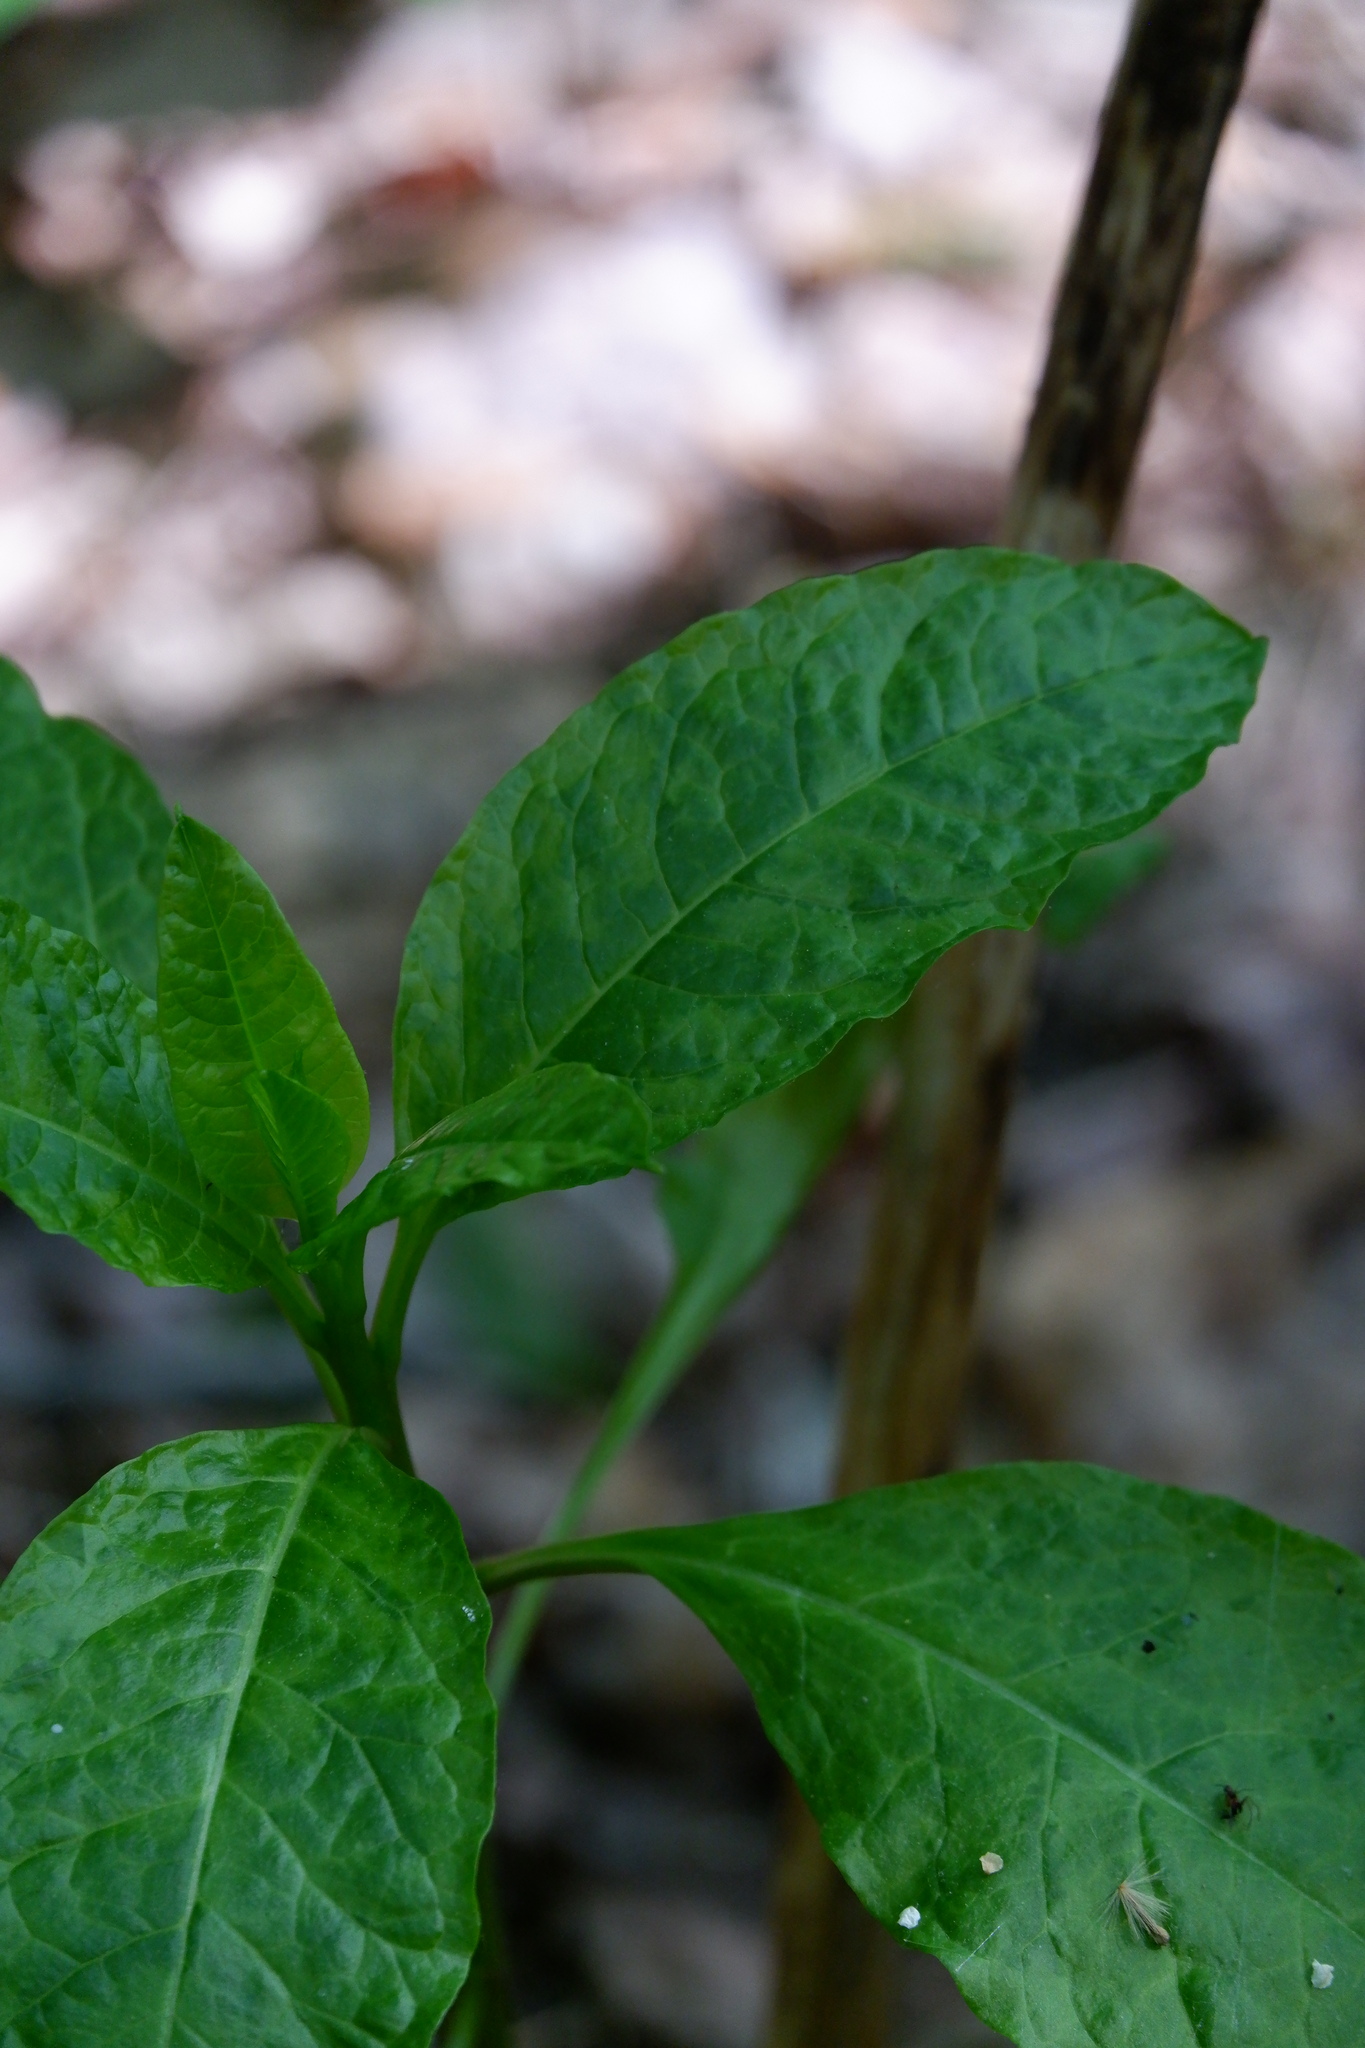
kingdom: Plantae
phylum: Tracheophyta
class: Magnoliopsida
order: Caryophyllales
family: Phytolaccaceae
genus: Phytolacca
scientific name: Phytolacca americana
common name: American pokeweed
